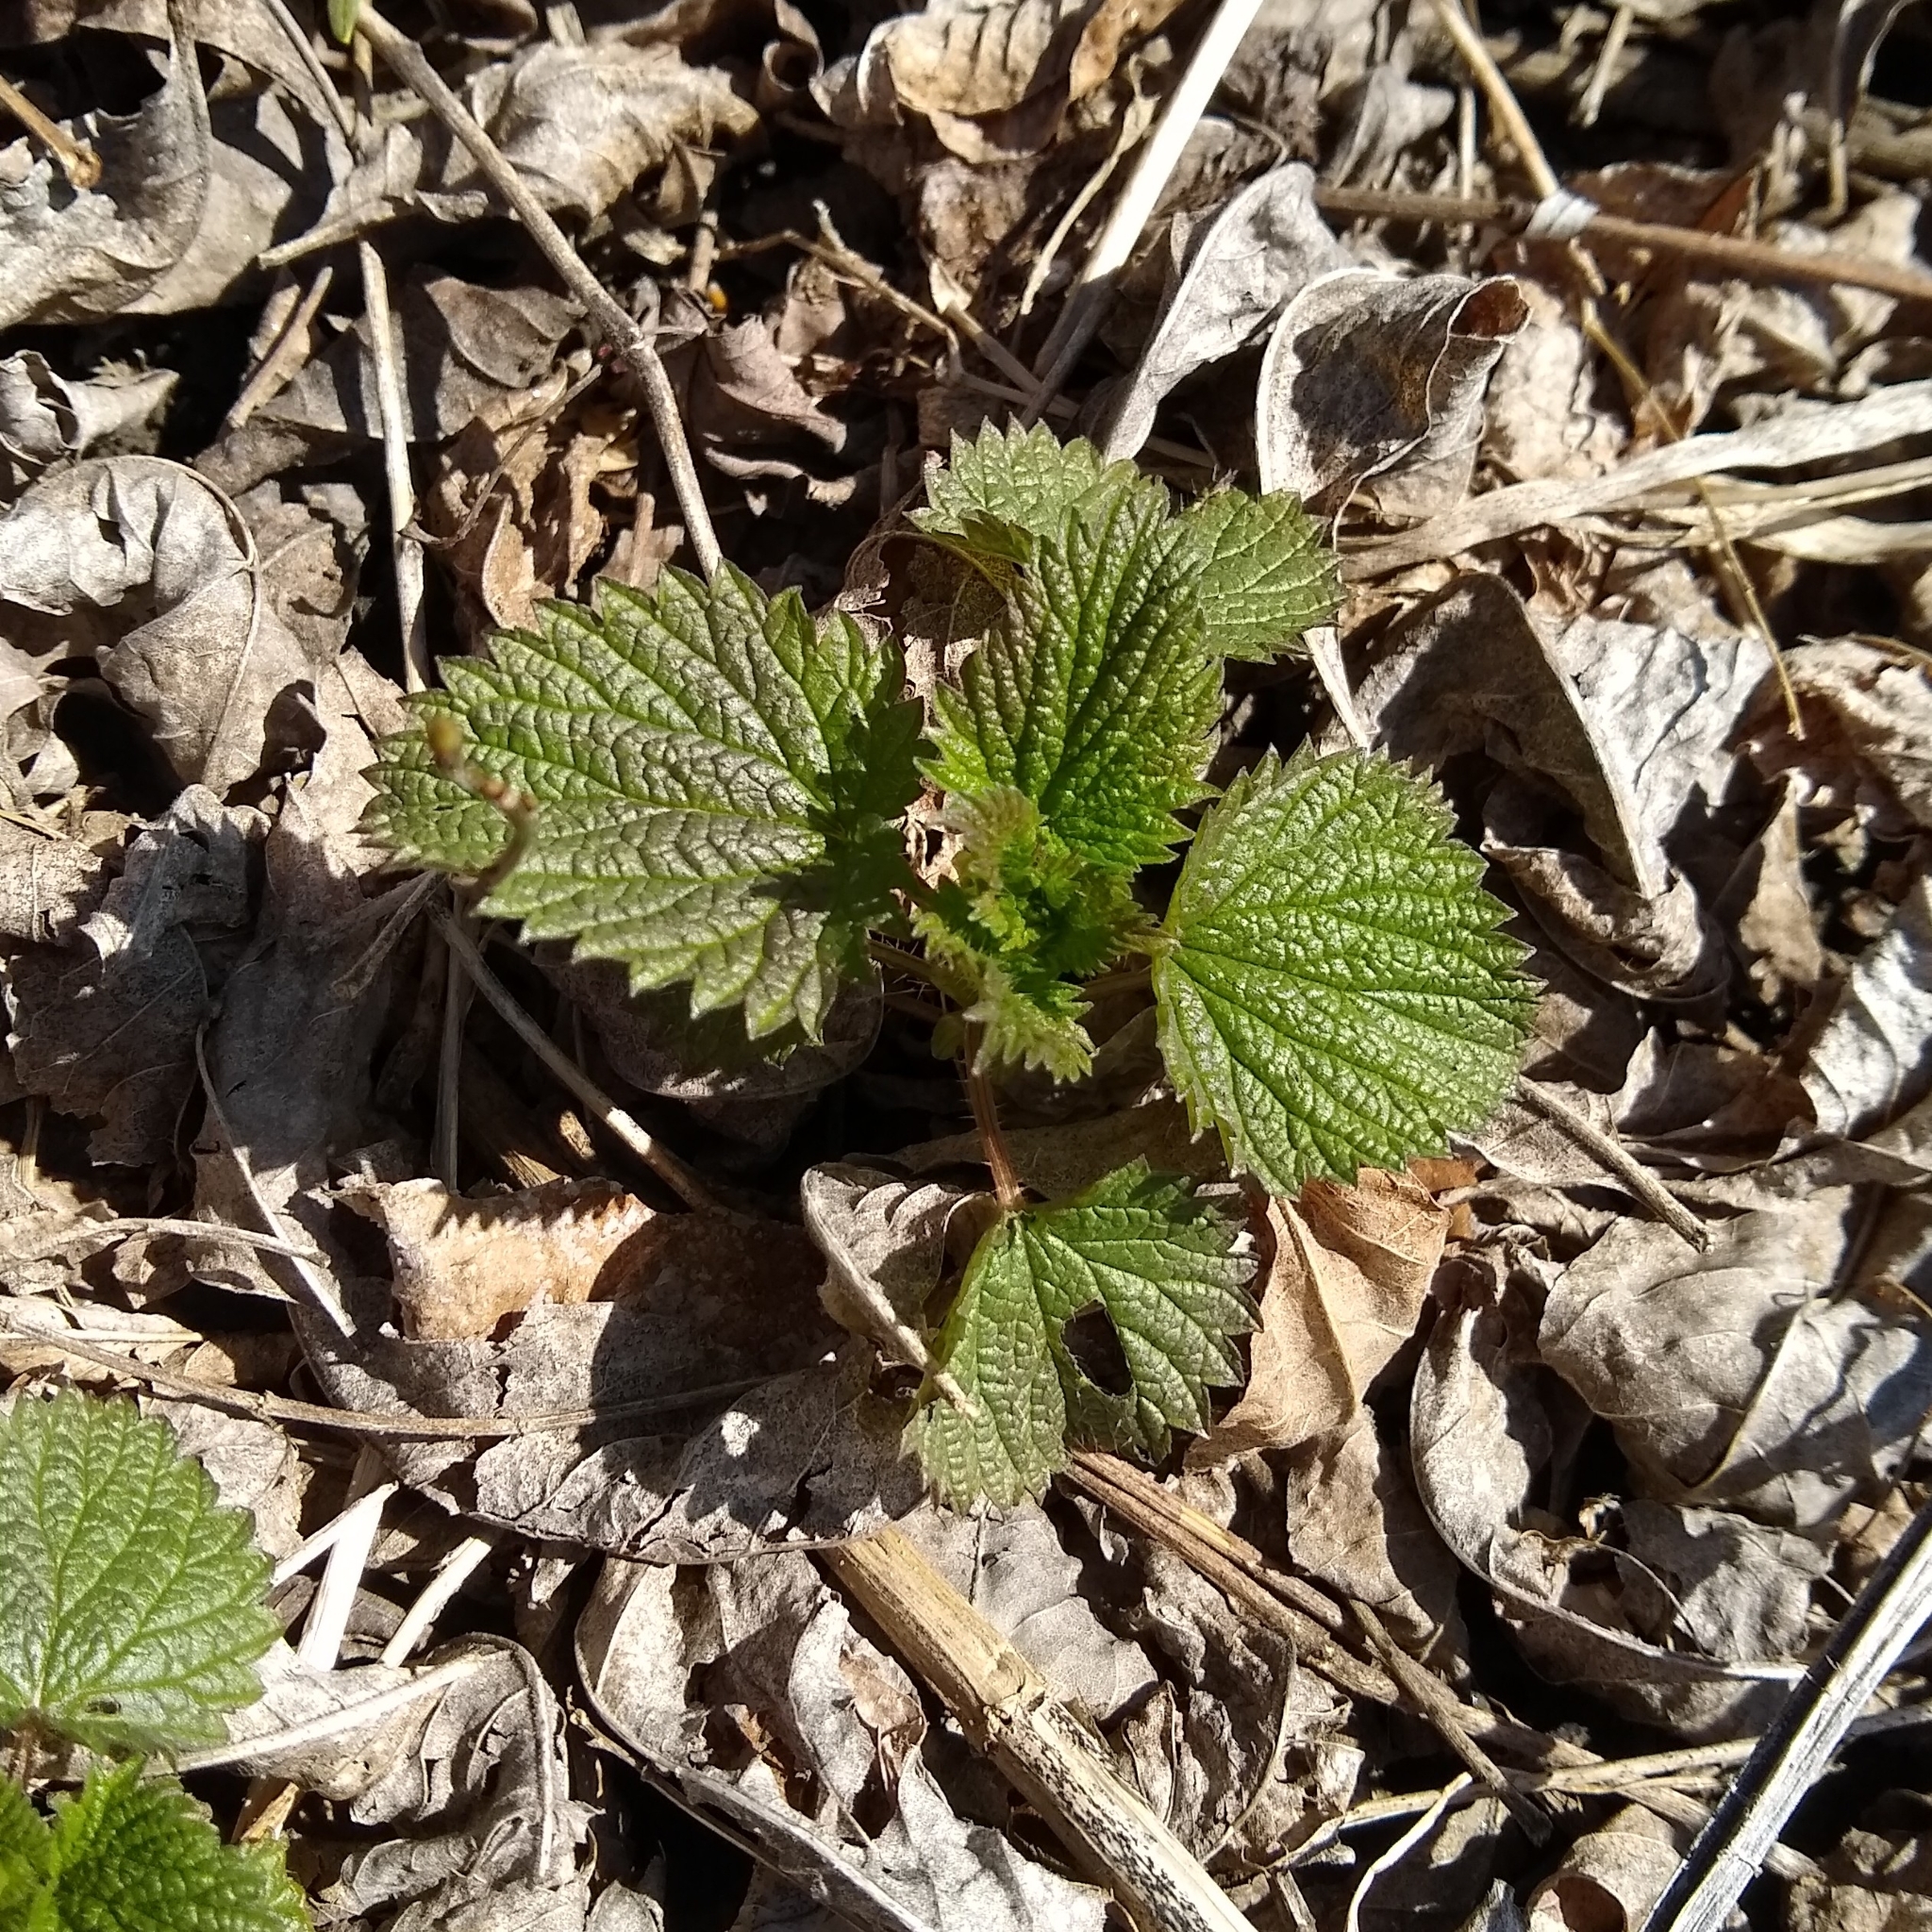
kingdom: Plantae
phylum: Tracheophyta
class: Magnoliopsida
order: Rosales
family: Urticaceae
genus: Urtica
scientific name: Urtica dioica
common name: Common nettle
